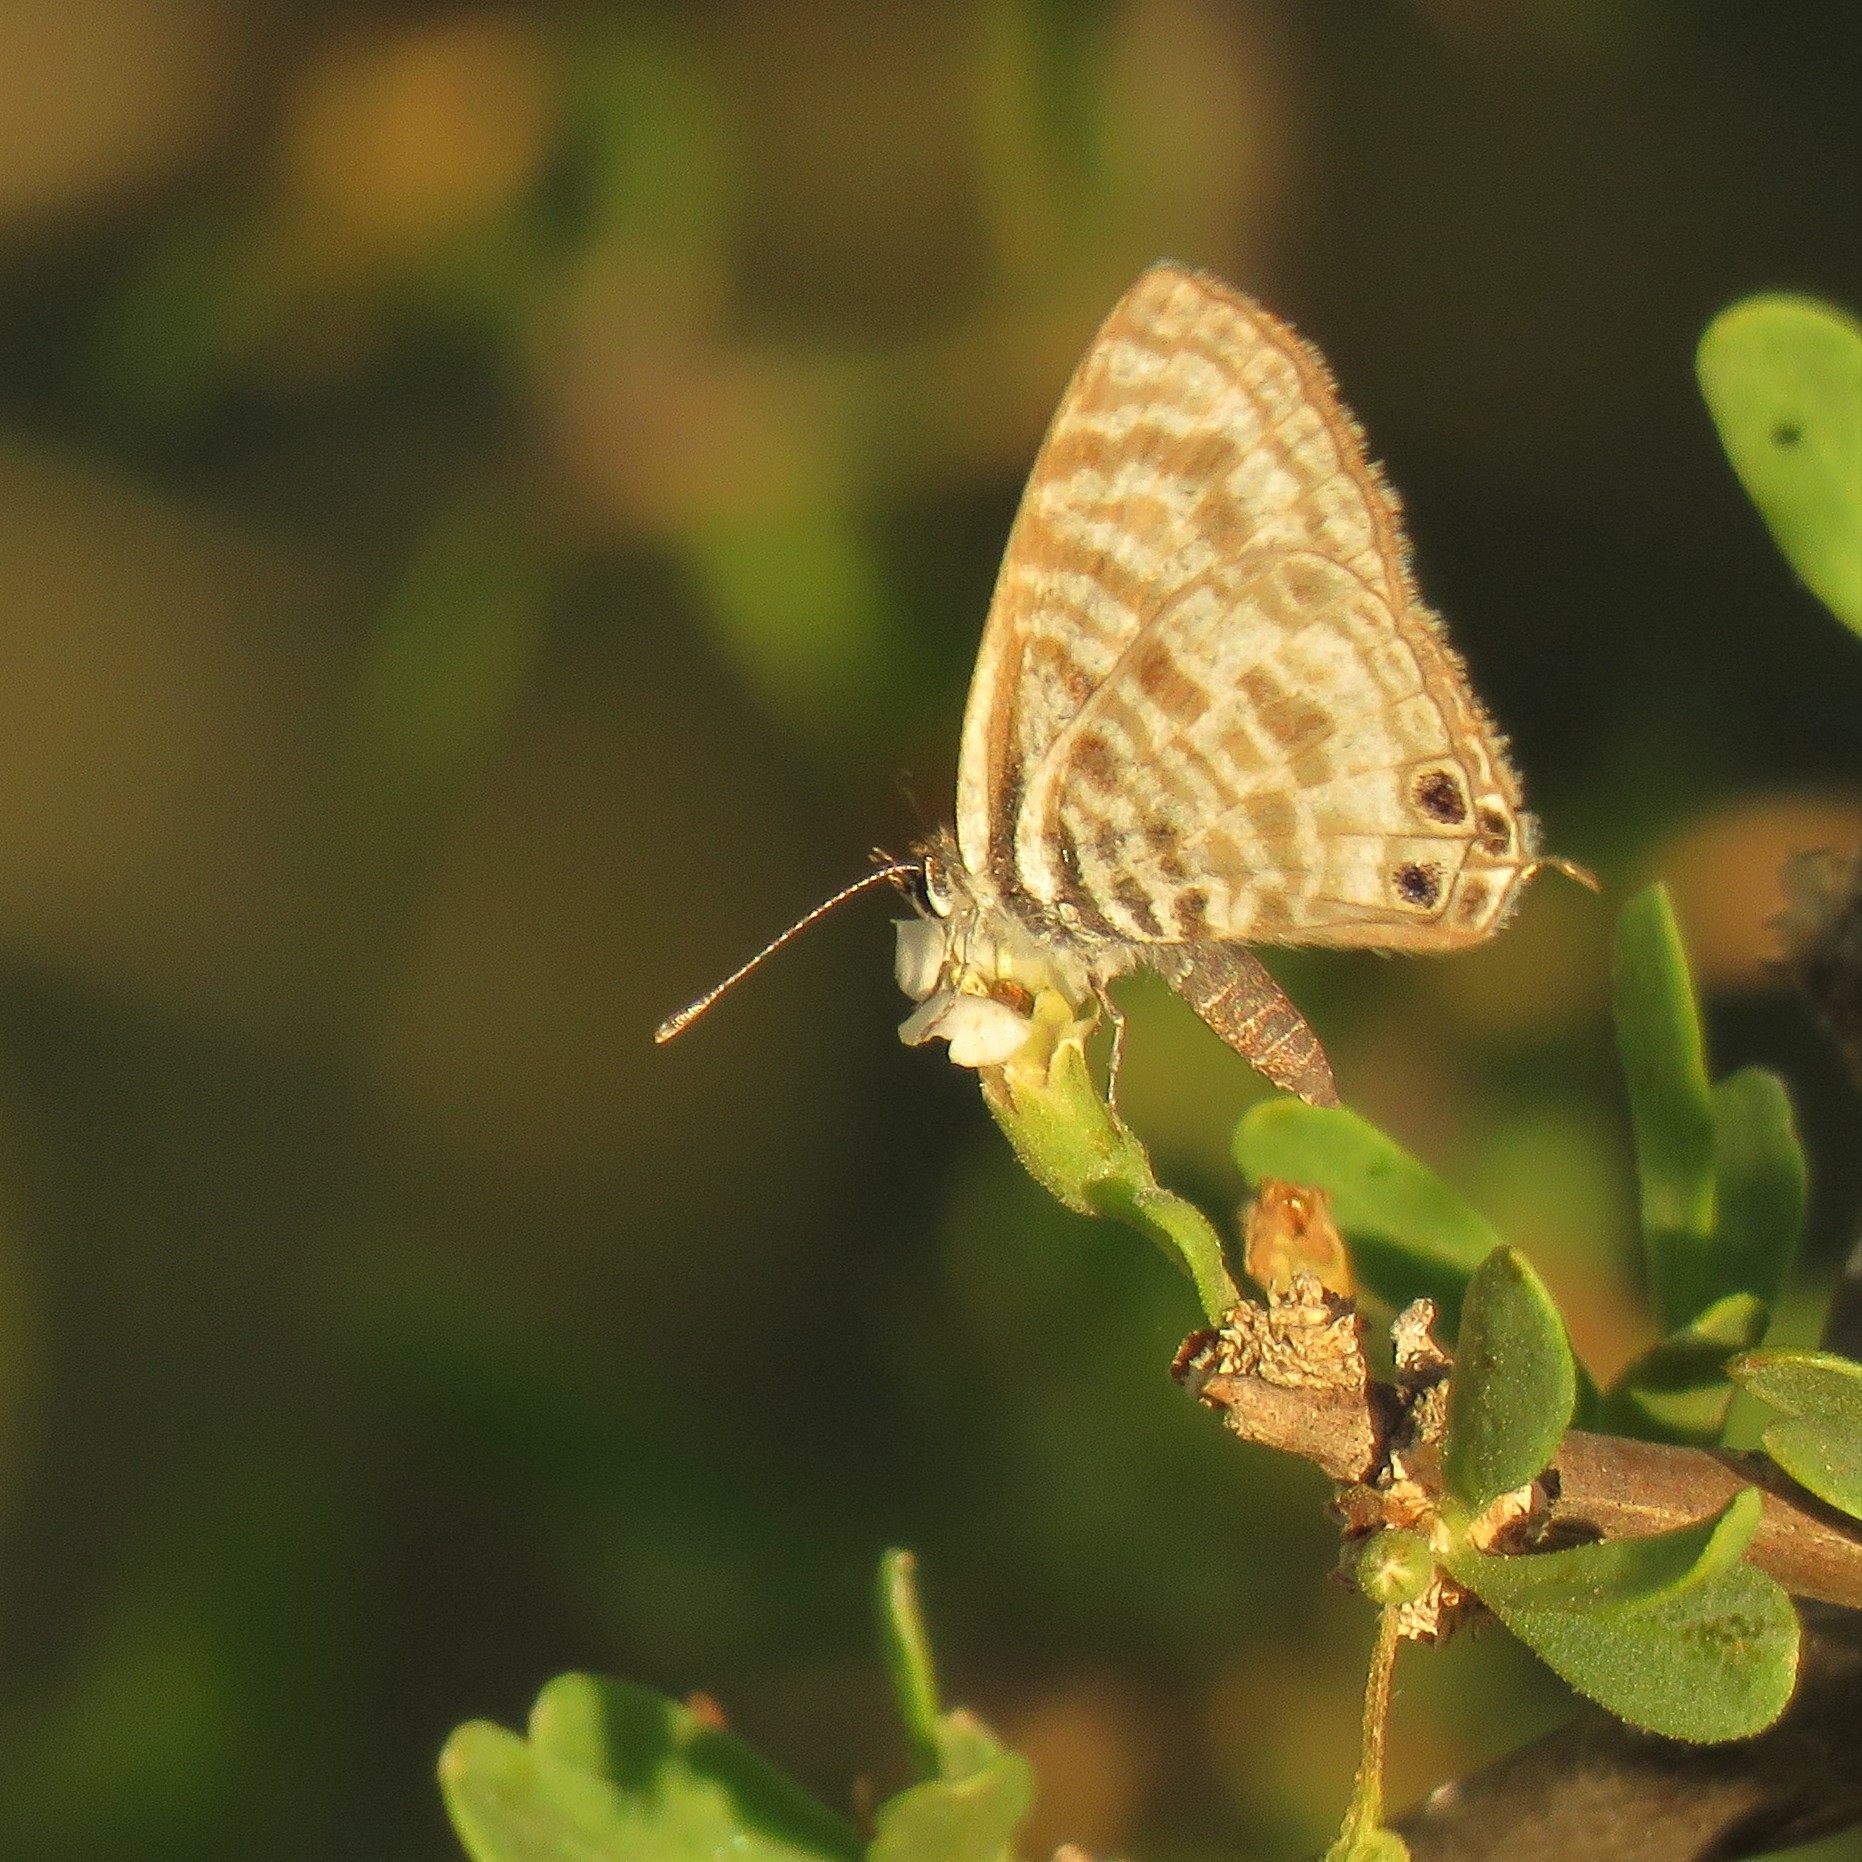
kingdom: Animalia
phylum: Arthropoda
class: Insecta
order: Lepidoptera
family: Lycaenidae
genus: Leptotes
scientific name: Leptotes
